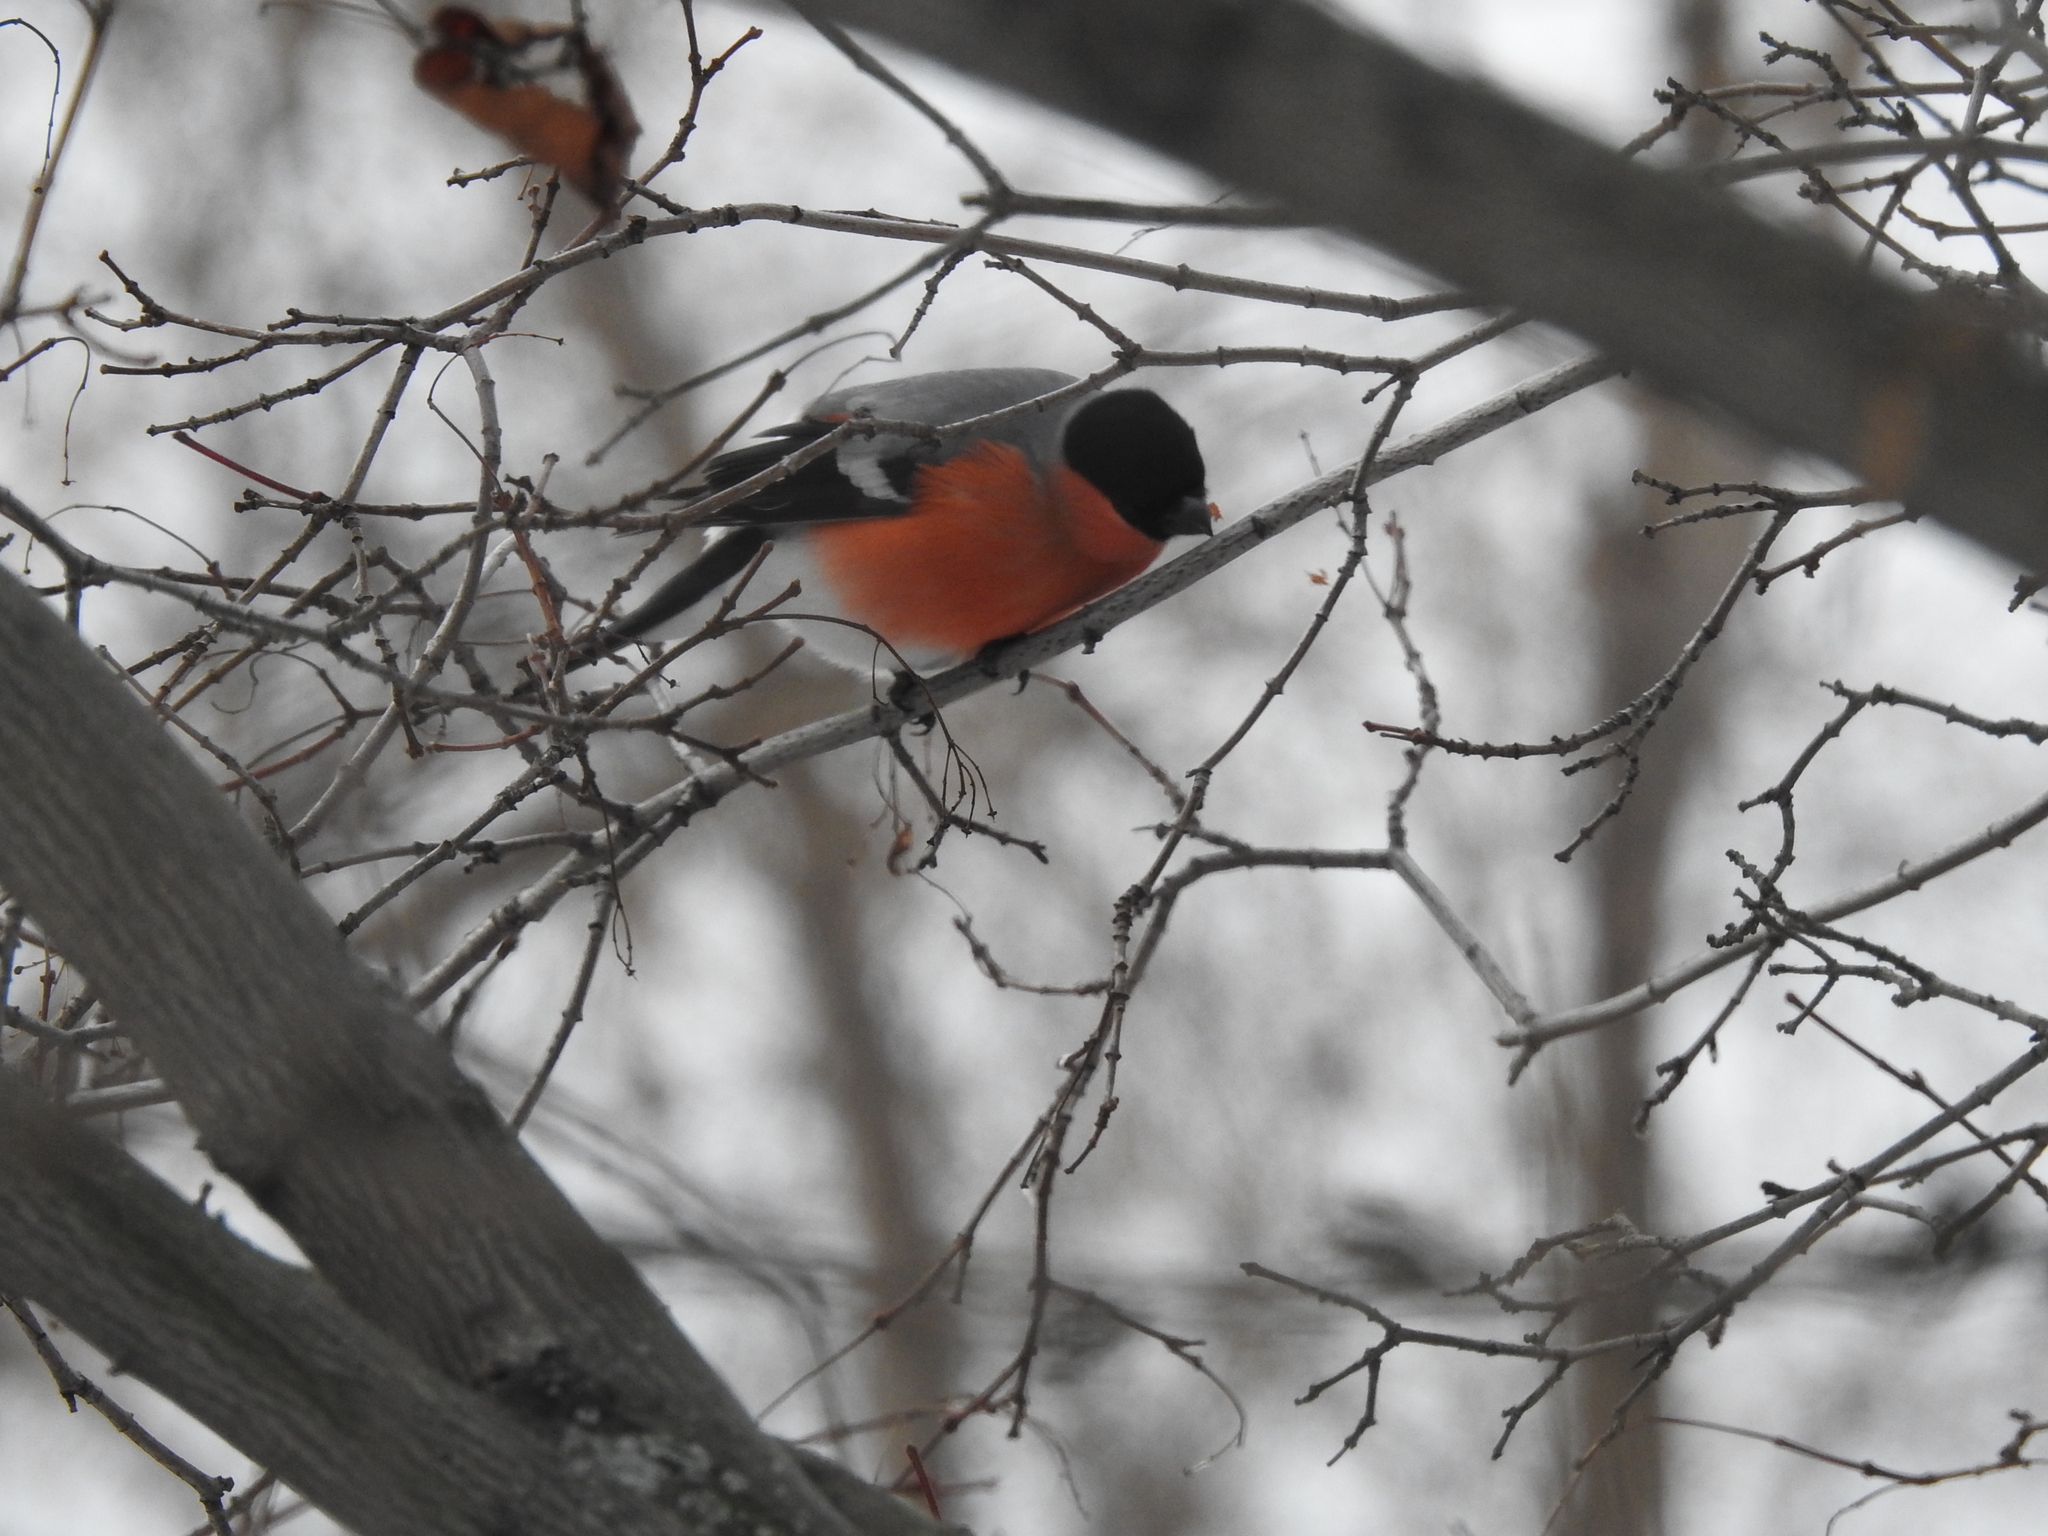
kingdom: Animalia
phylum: Chordata
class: Aves
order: Passeriformes
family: Fringillidae
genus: Pyrrhula
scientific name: Pyrrhula pyrrhula
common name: Eurasian bullfinch
